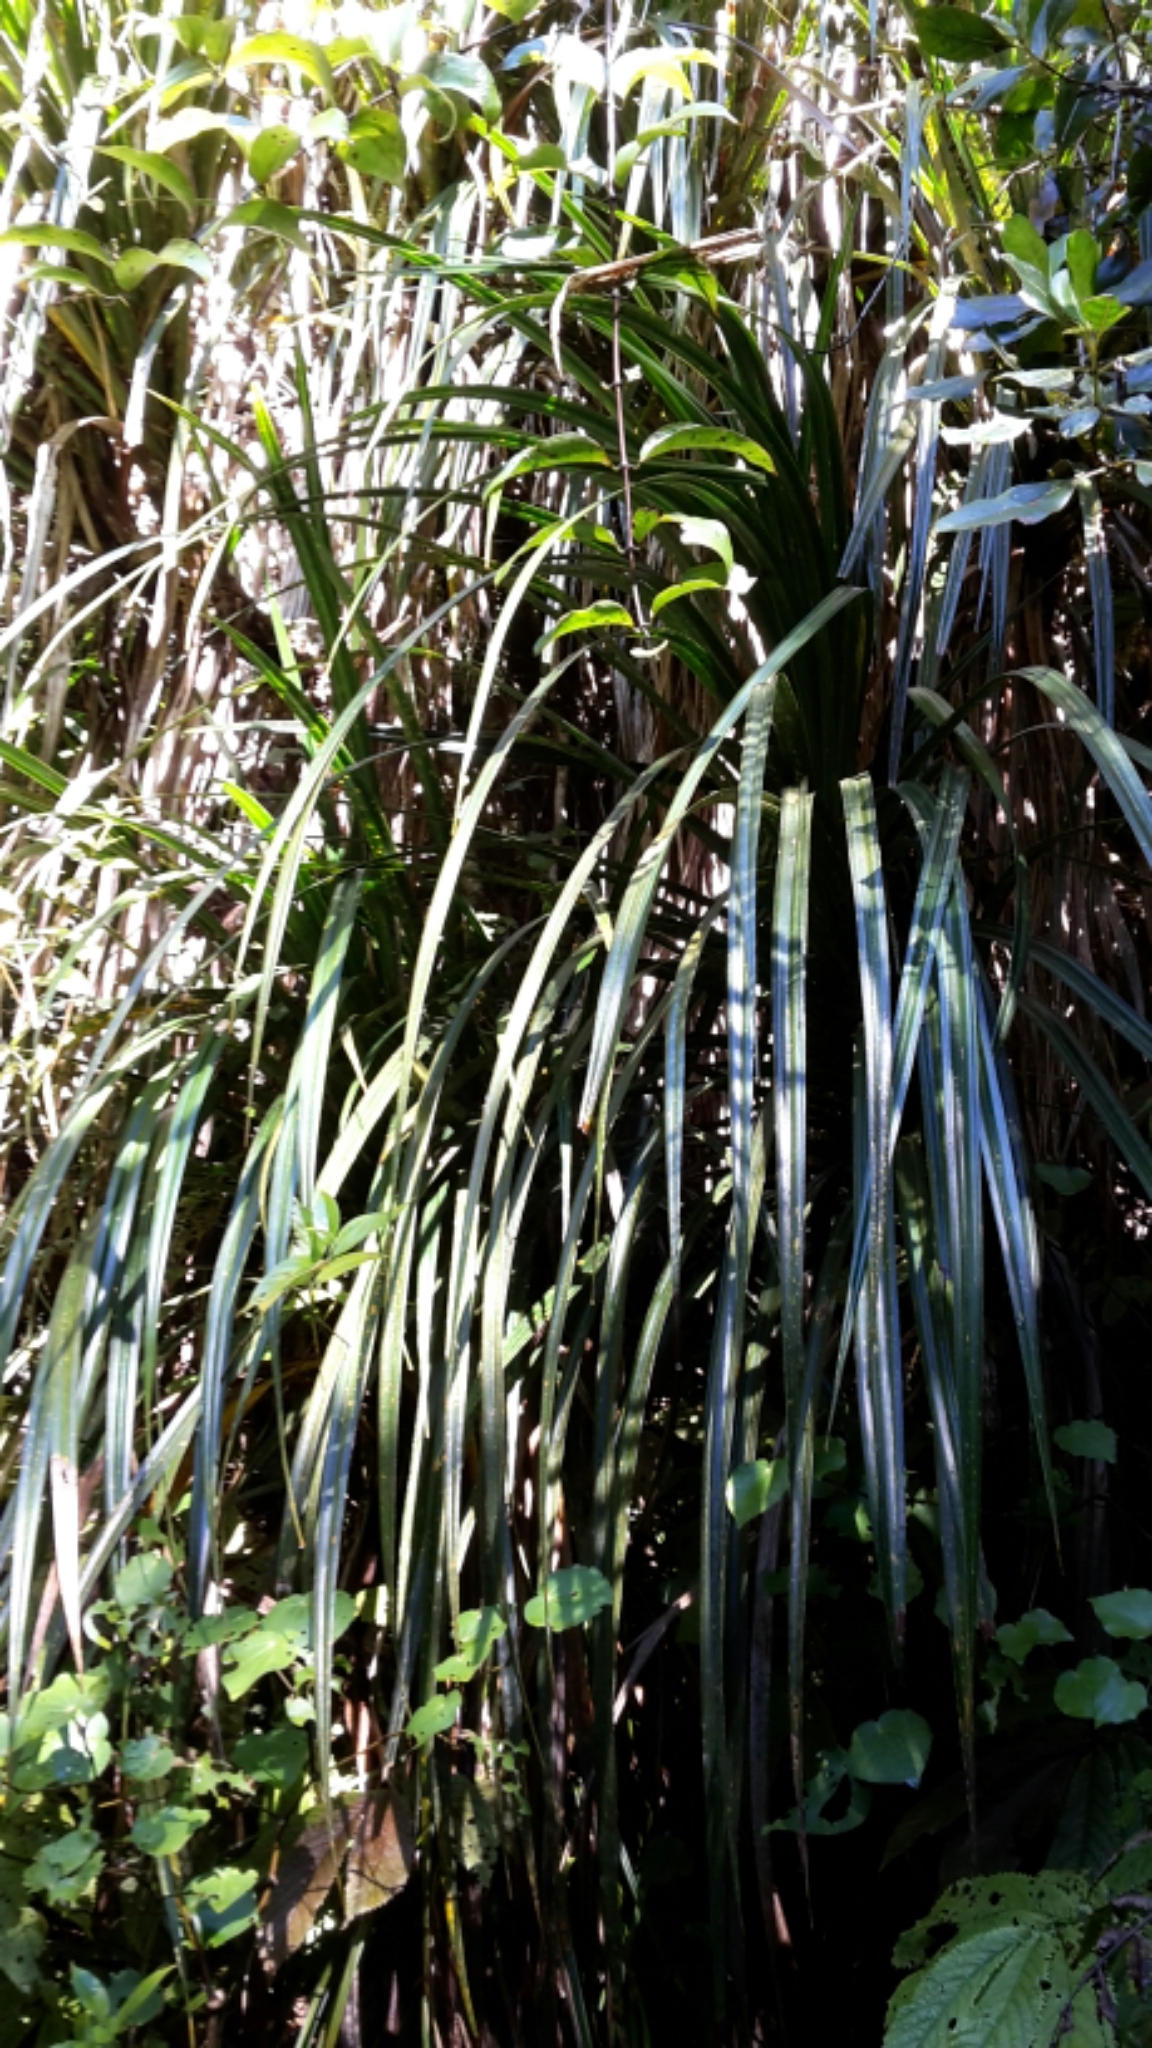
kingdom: Plantae
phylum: Tracheophyta
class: Liliopsida
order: Pandanales
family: Pandanaceae
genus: Freycinetia
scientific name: Freycinetia banksii
